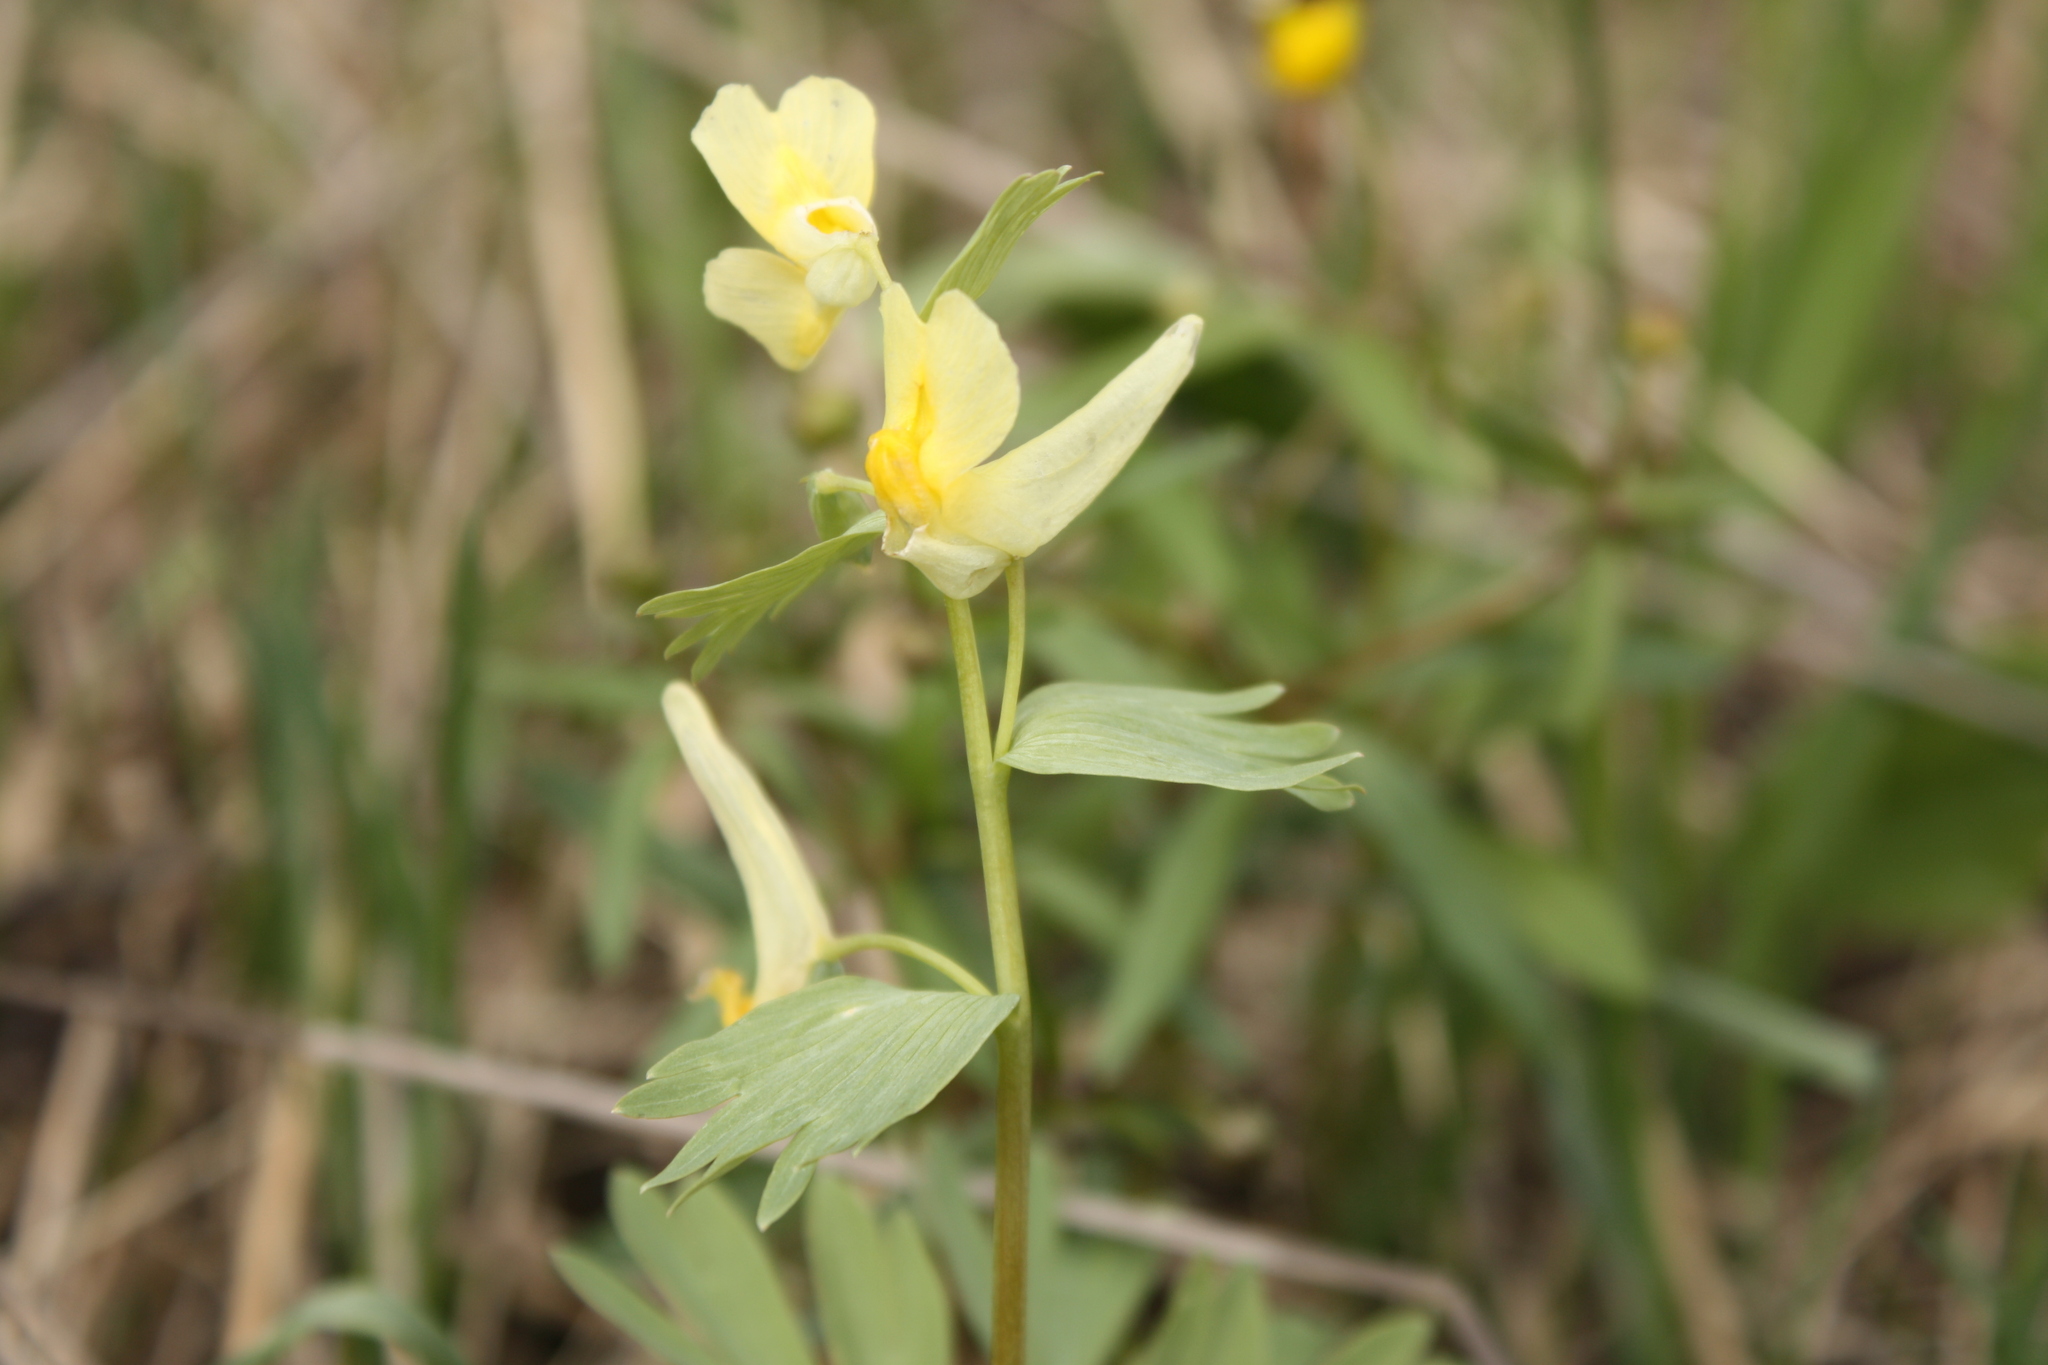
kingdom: Plantae
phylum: Tracheophyta
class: Magnoliopsida
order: Ranunculales
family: Papaveraceae
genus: Corydalis
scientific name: Corydalis bracteata
